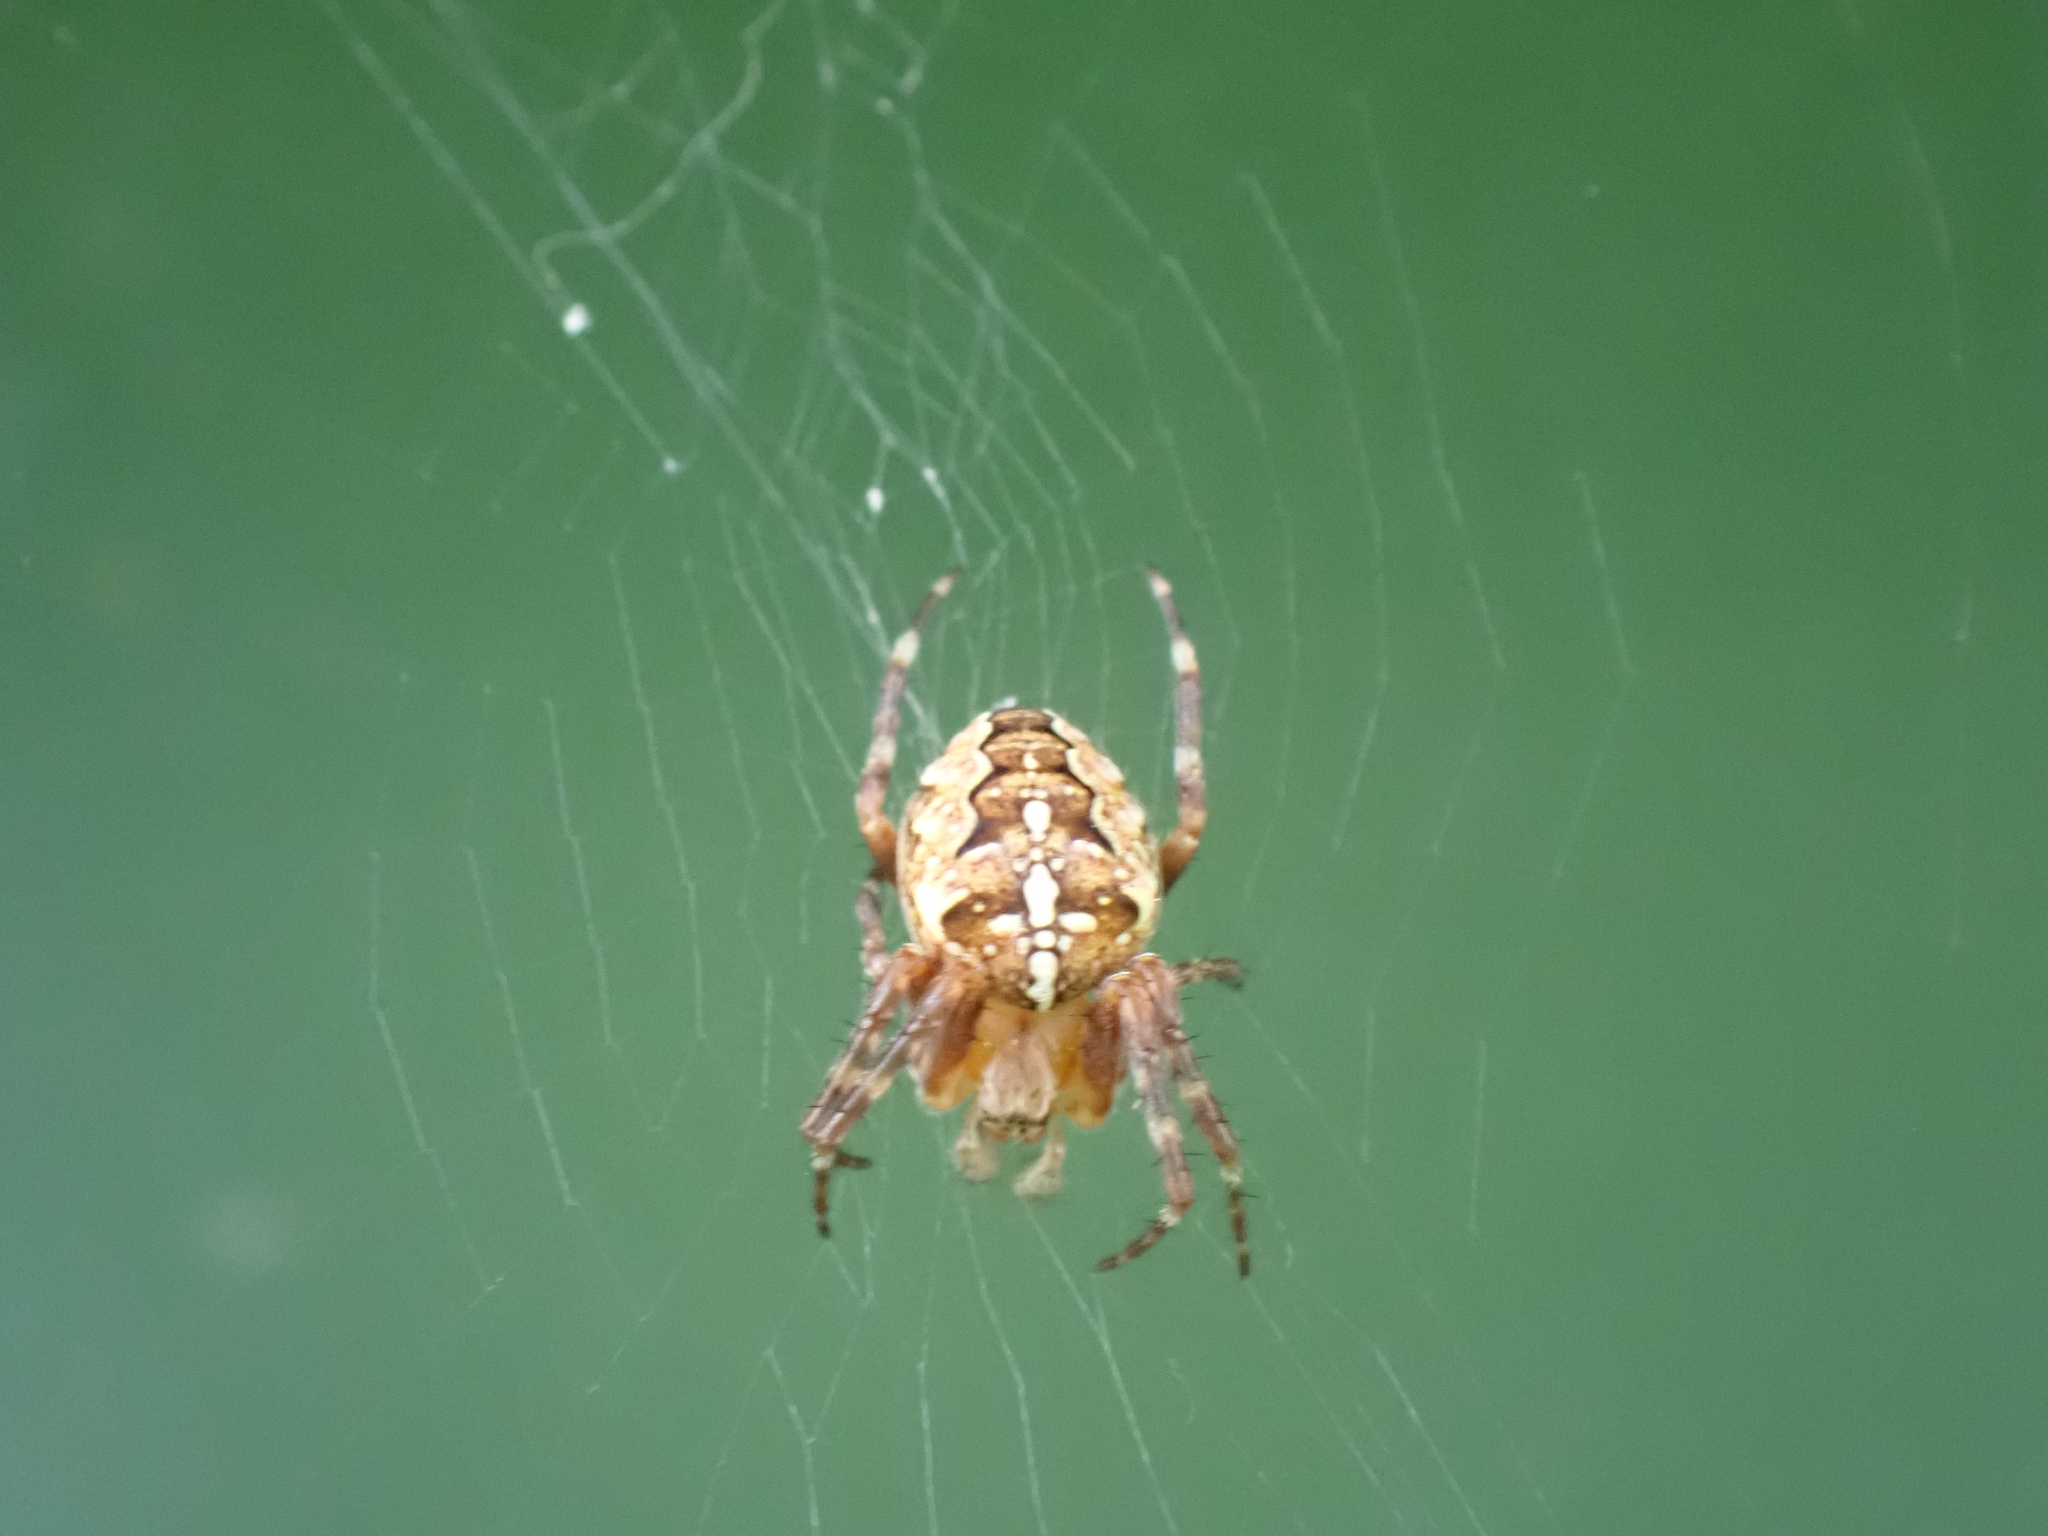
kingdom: Animalia
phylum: Arthropoda
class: Arachnida
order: Araneae
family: Araneidae
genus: Araneus
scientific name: Araneus diadematus
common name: Cross orbweaver
